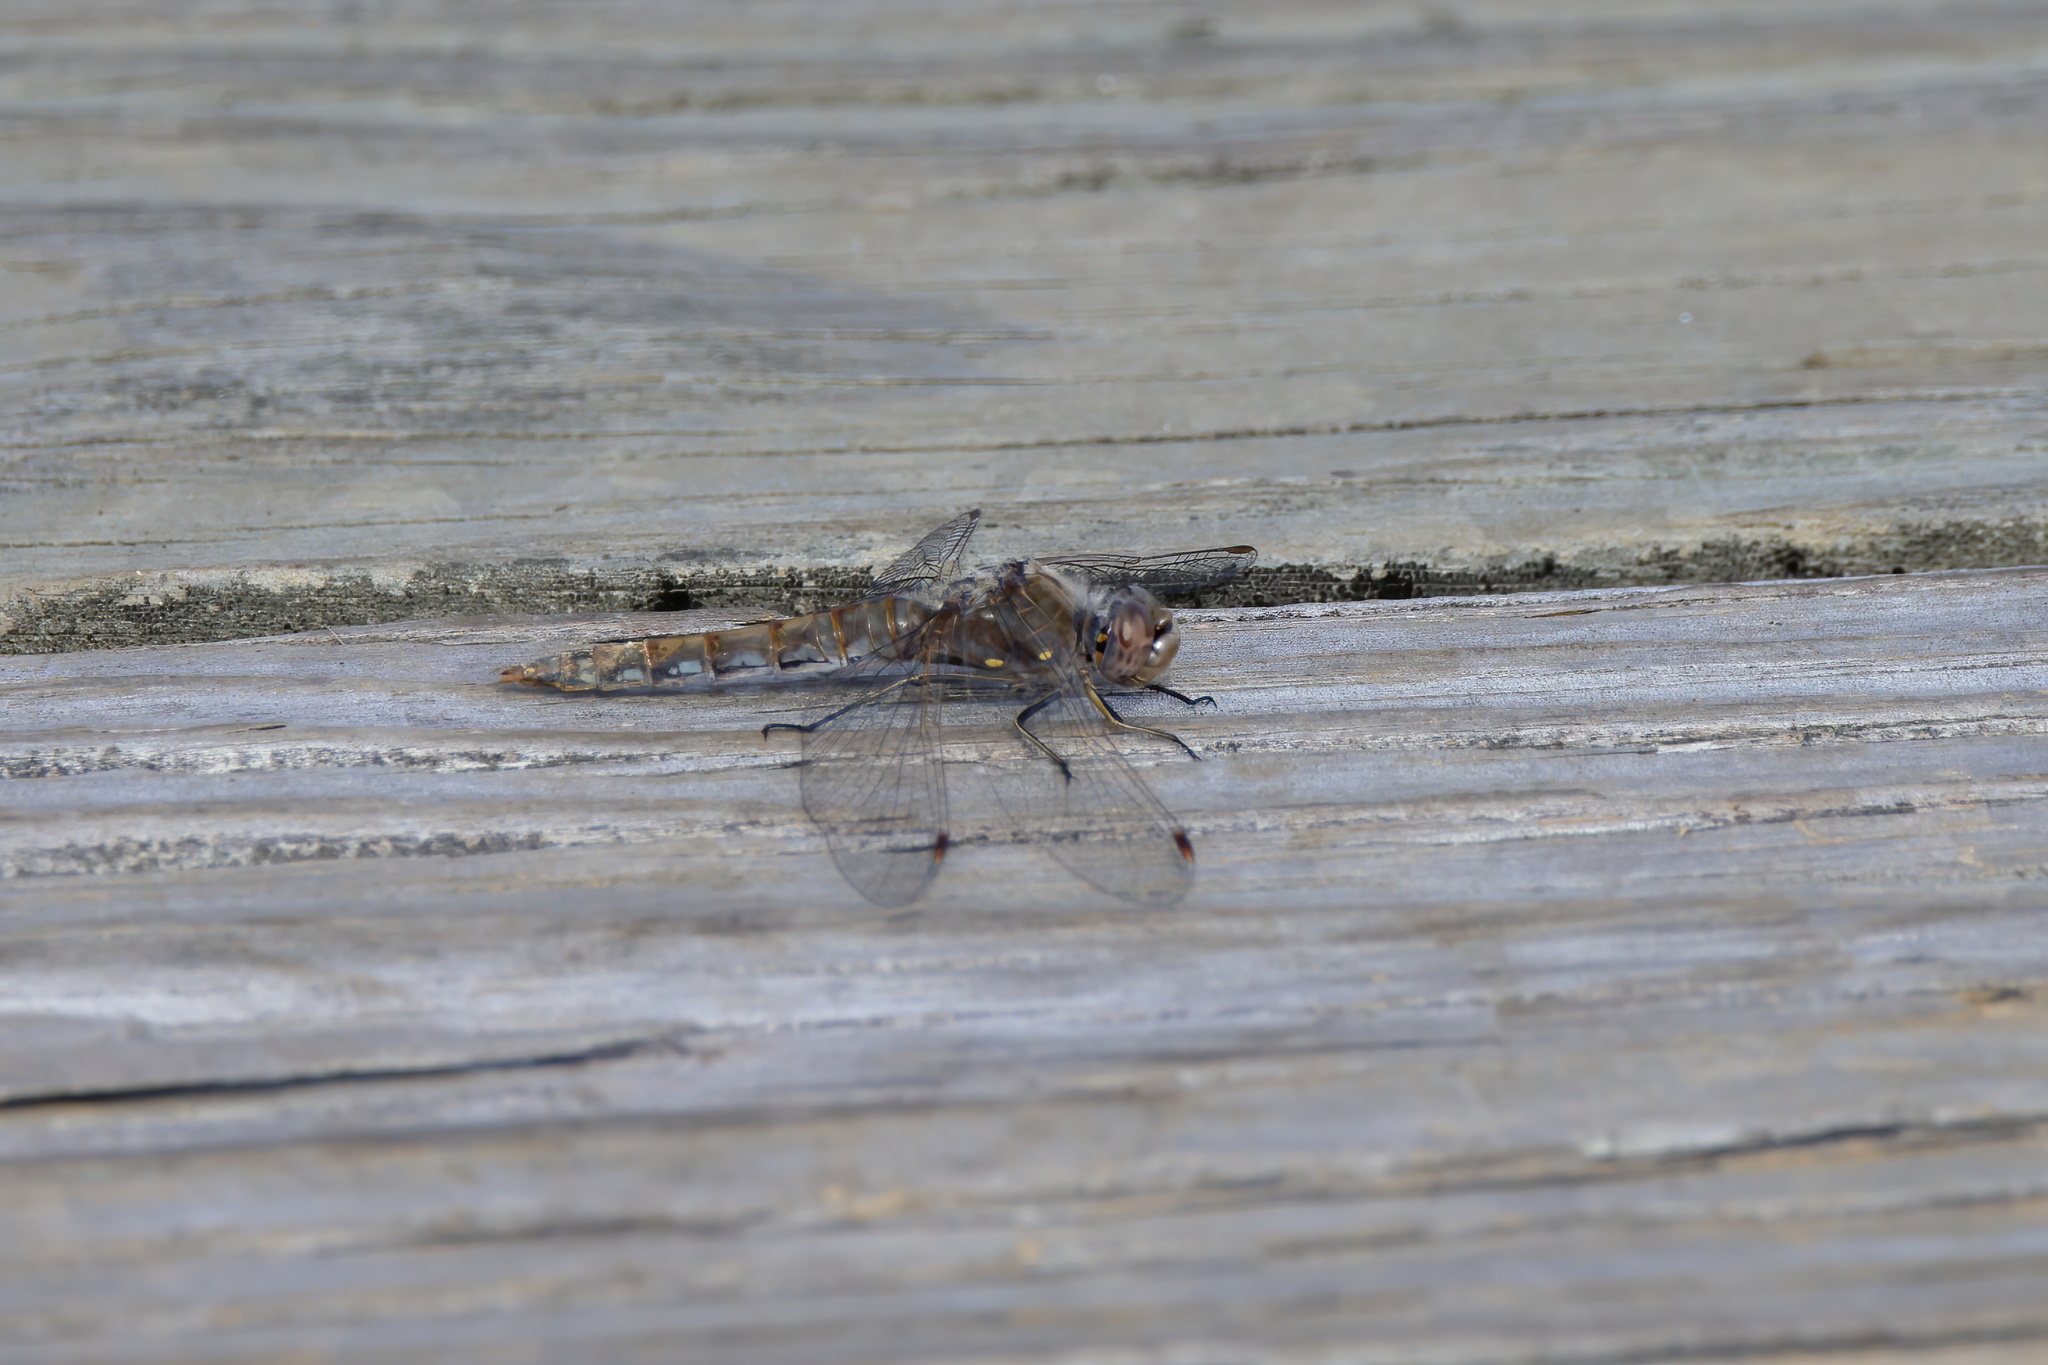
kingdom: Animalia
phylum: Arthropoda
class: Insecta
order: Odonata
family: Libellulidae
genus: Sympetrum
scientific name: Sympetrum corruptum
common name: Variegated meadowhawk
